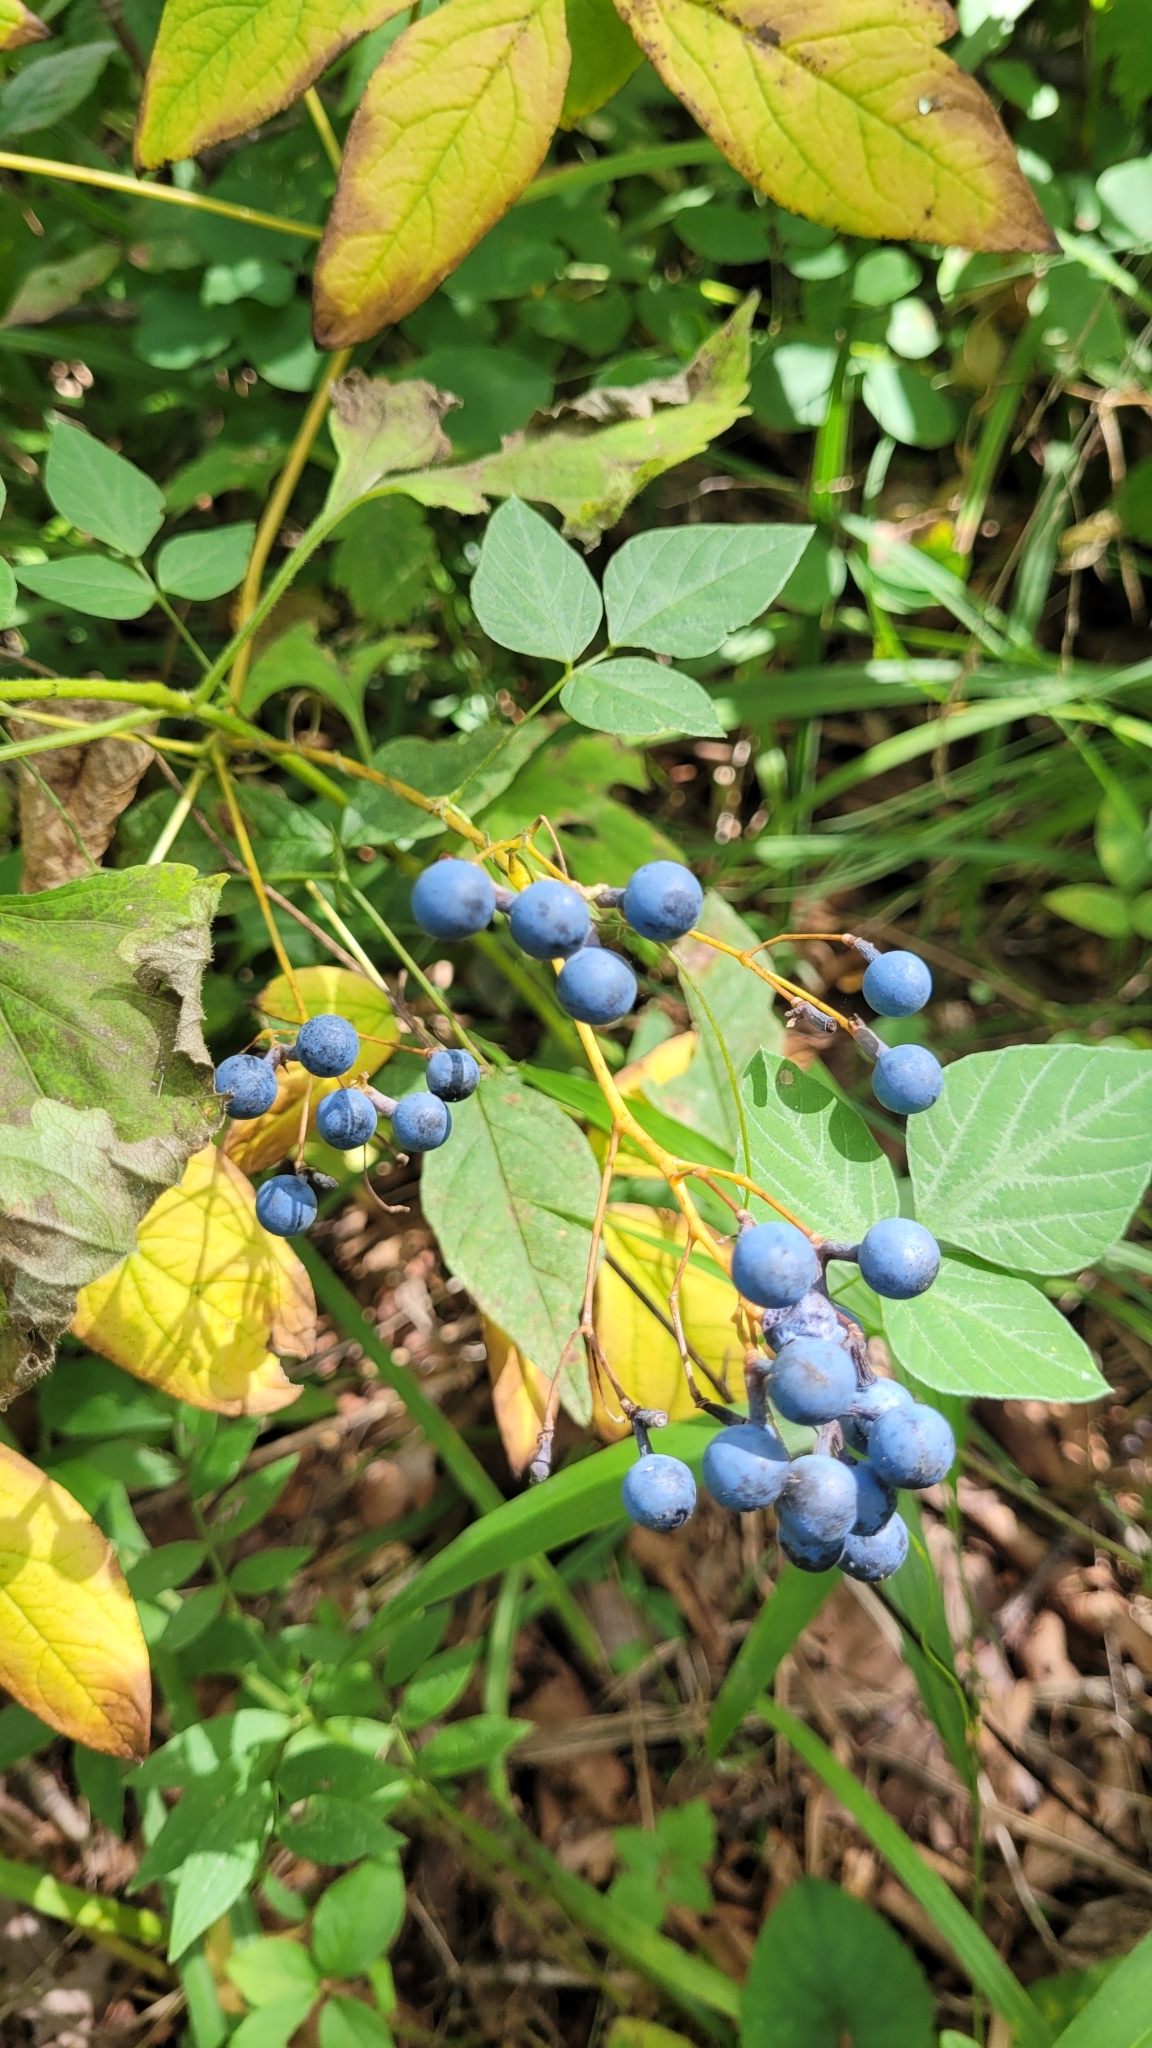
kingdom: Plantae
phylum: Tracheophyta
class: Magnoliopsida
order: Ranunculales
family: Berberidaceae
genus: Caulophyllum
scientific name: Caulophyllum robustum
